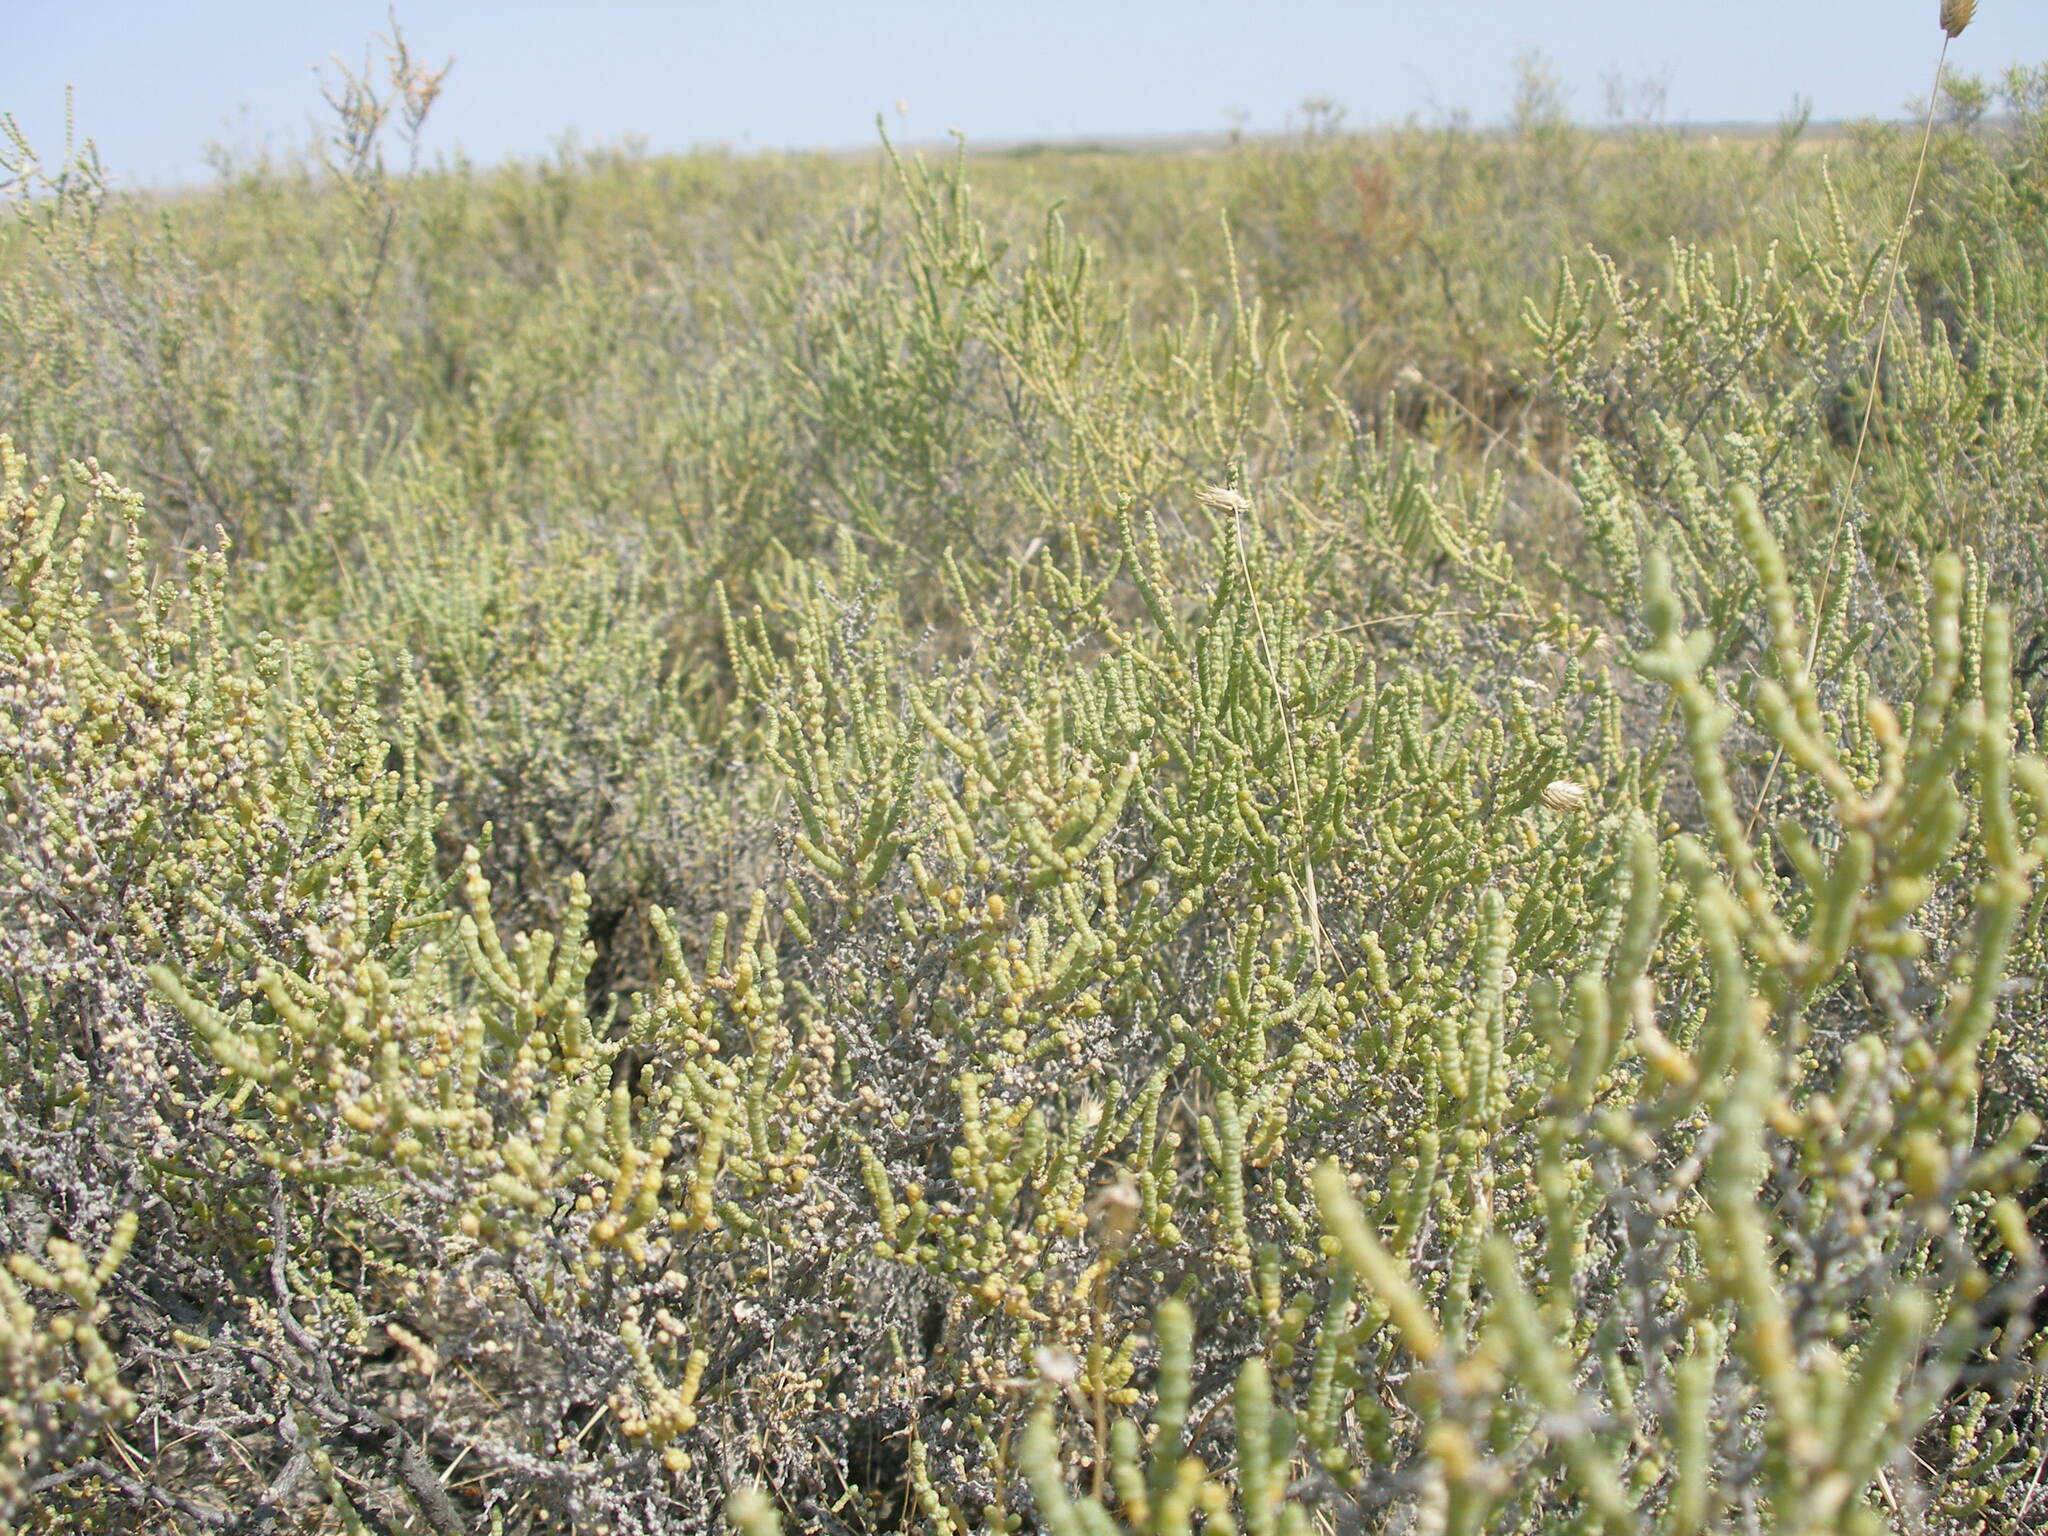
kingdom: Plantae
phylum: Tracheophyta
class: Magnoliopsida
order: Caryophyllales
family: Amaranthaceae
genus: Halocnemum
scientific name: Halocnemum strobilaceum
